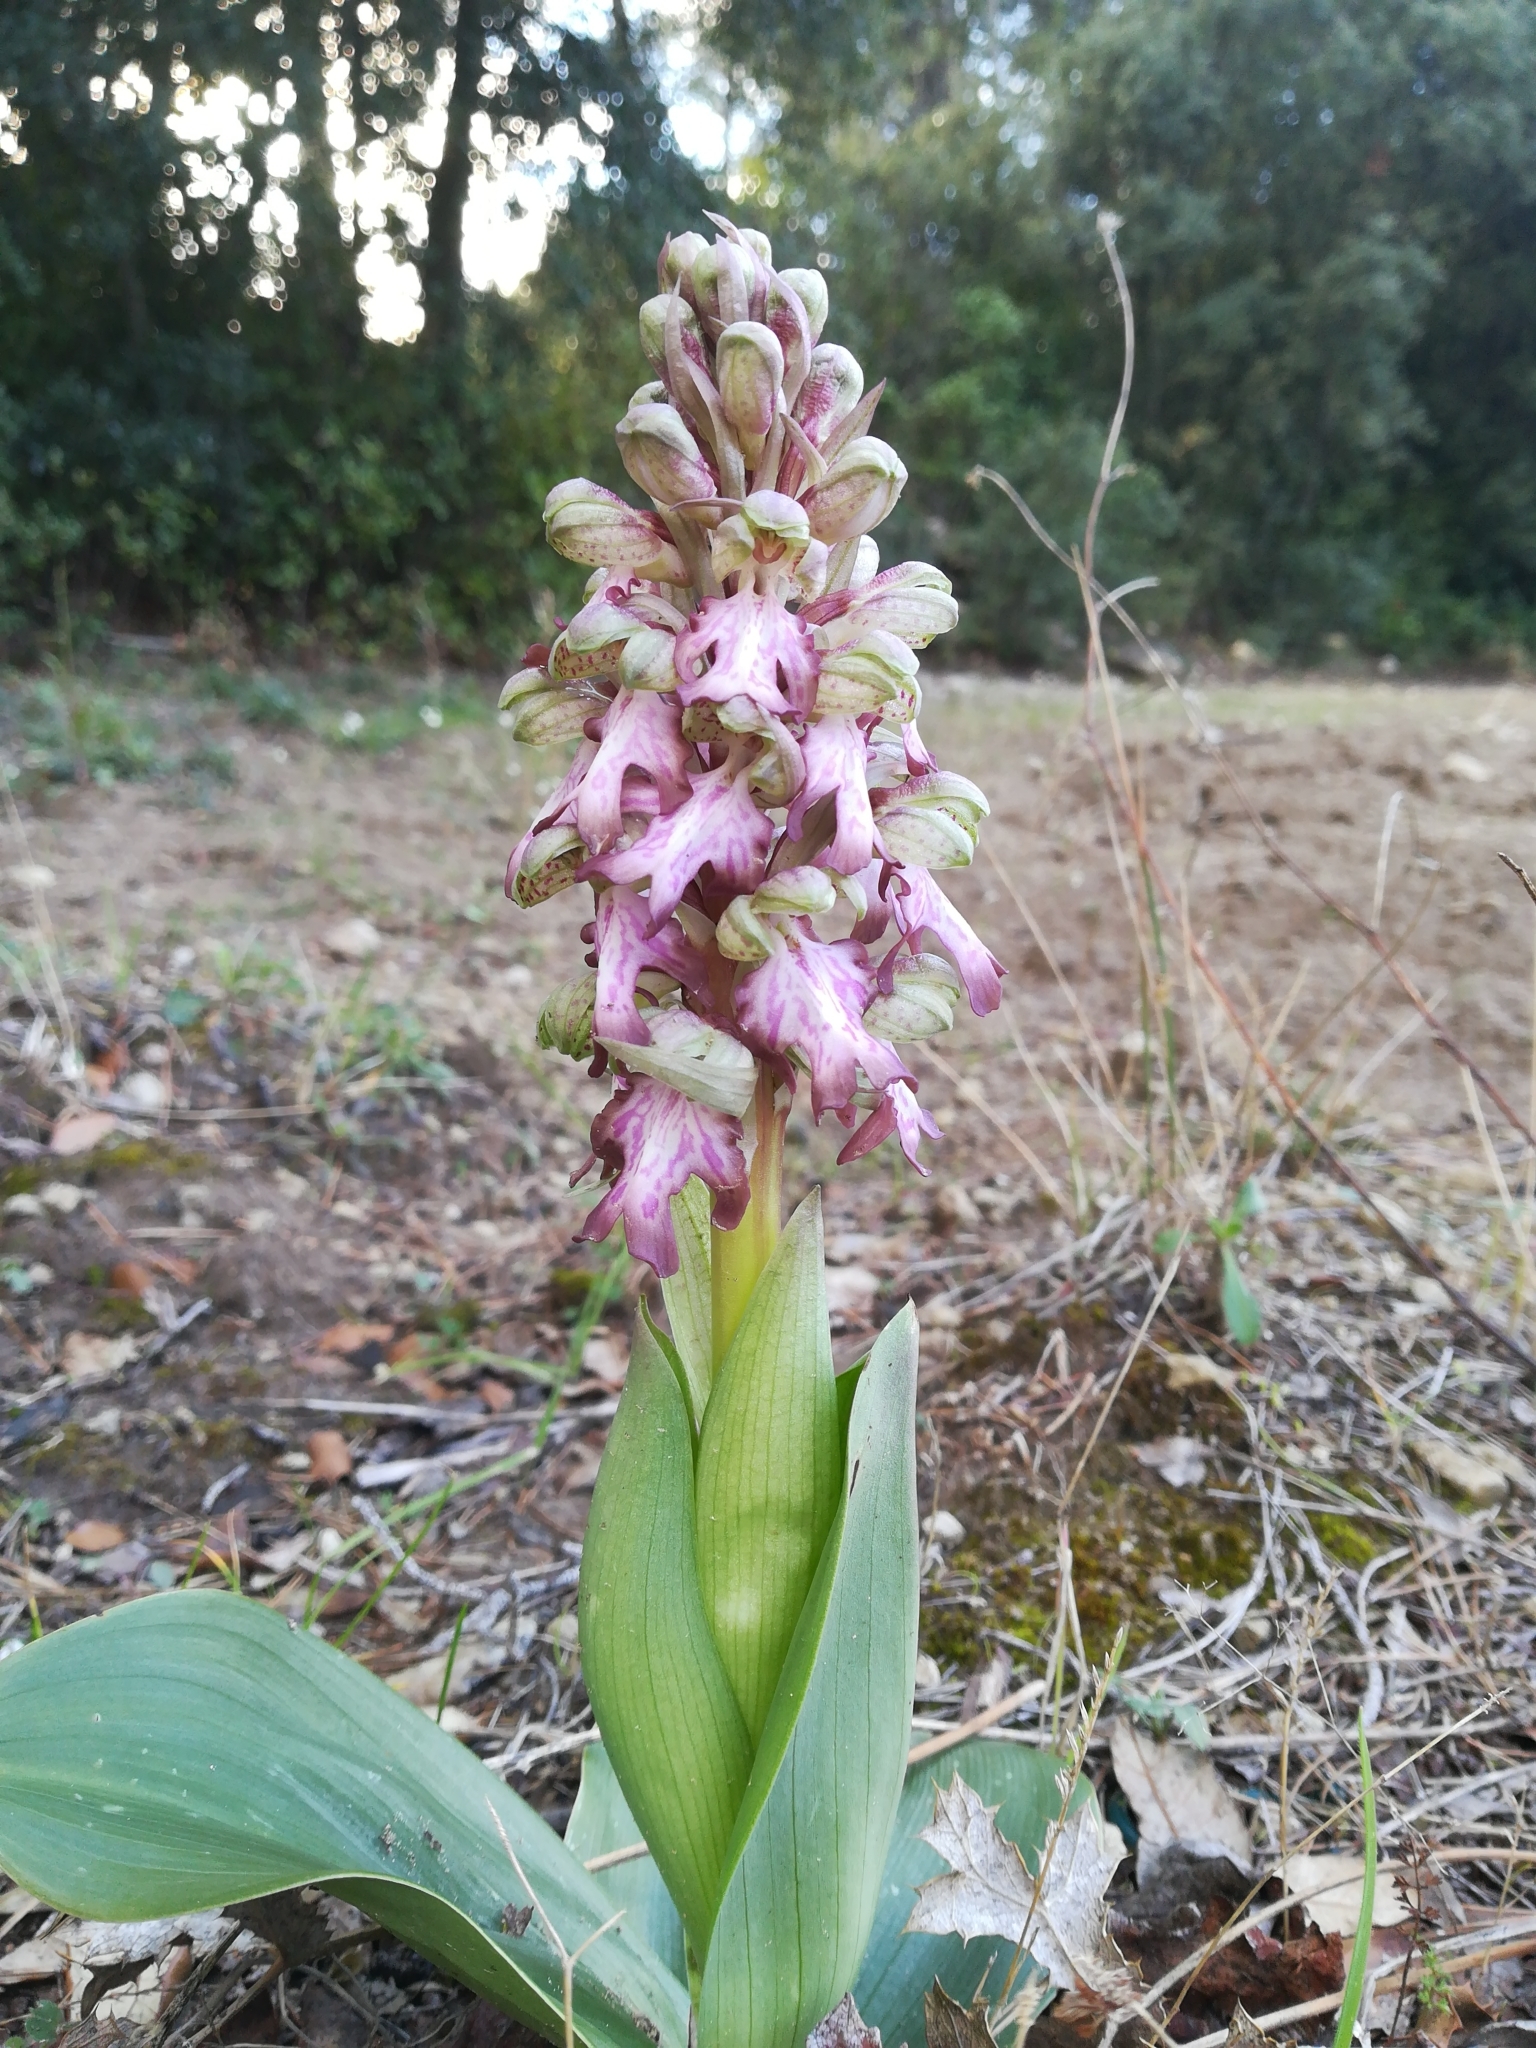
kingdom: Plantae
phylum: Tracheophyta
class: Liliopsida
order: Asparagales
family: Orchidaceae
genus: Himantoglossum
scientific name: Himantoglossum robertianum
